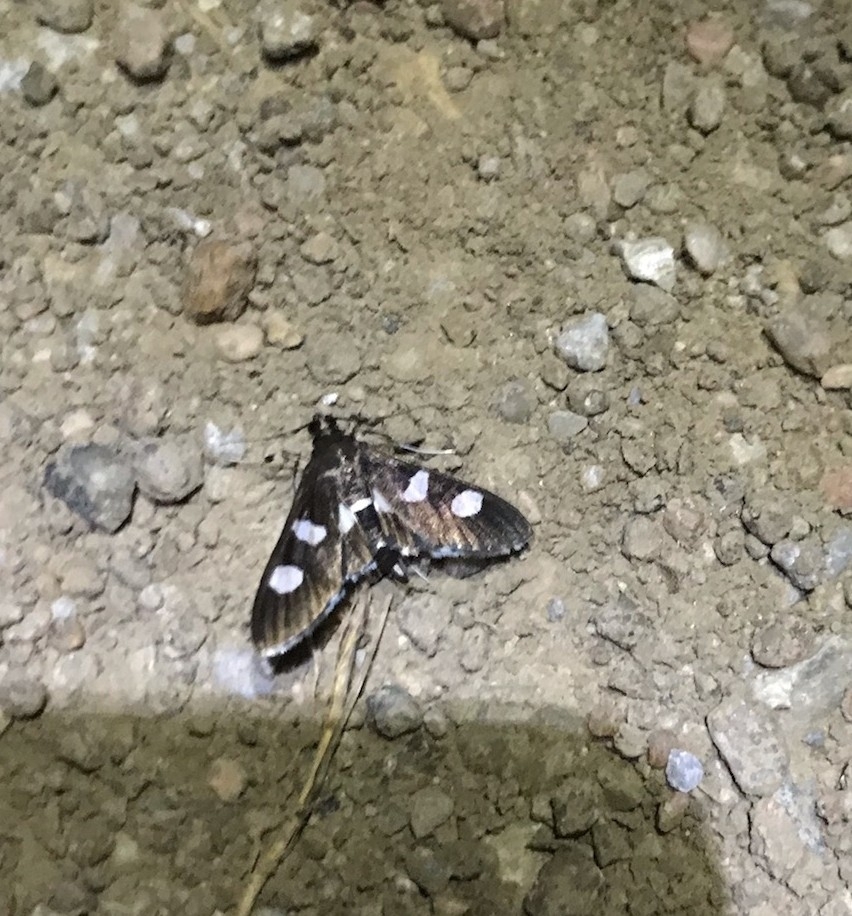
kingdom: Animalia
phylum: Arthropoda
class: Insecta
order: Lepidoptera
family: Crambidae
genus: Desmia
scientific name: Desmia
